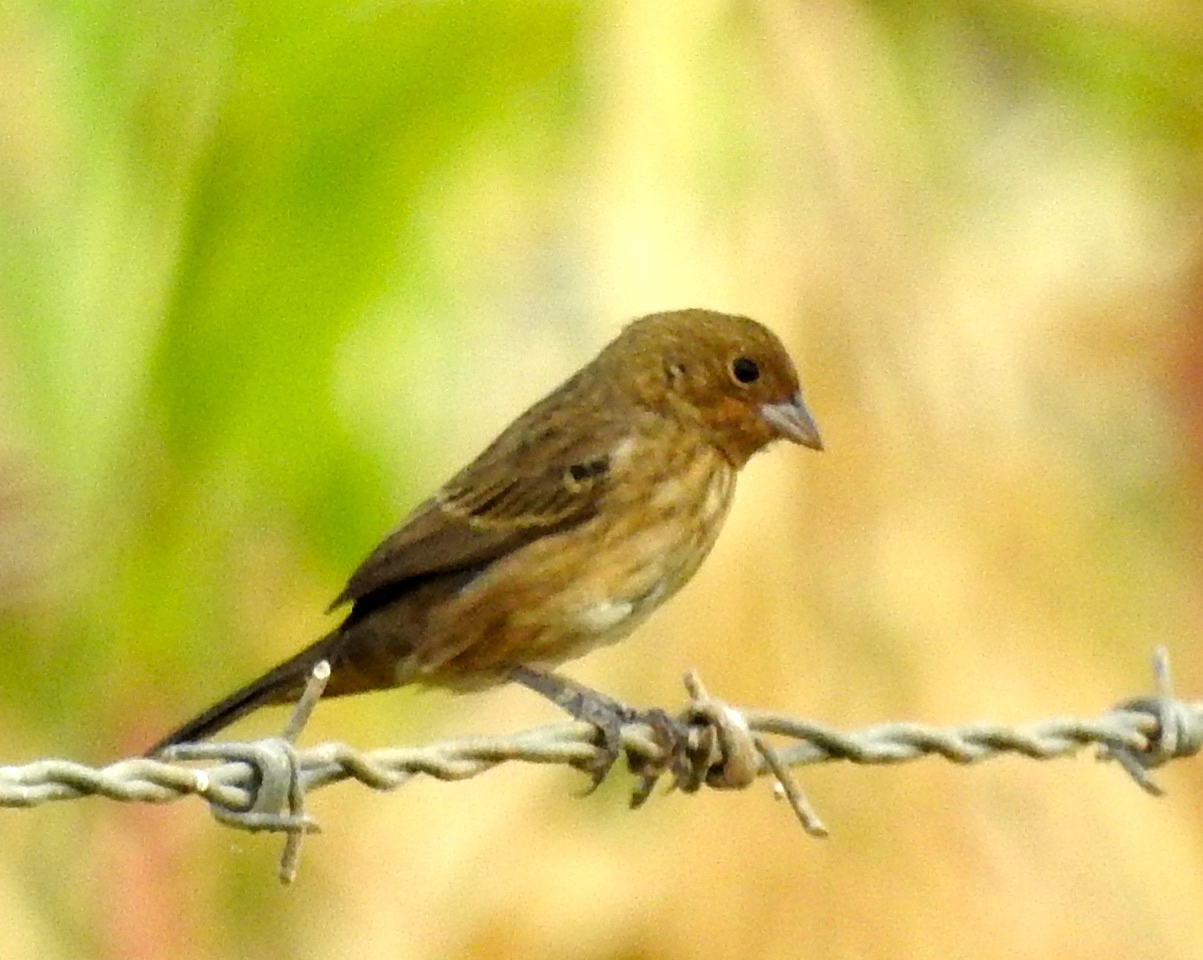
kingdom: Animalia
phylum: Chordata
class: Aves
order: Passeriformes
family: Thraupidae
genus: Volatinia
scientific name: Volatinia jacarina
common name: Blue-black grassquit
